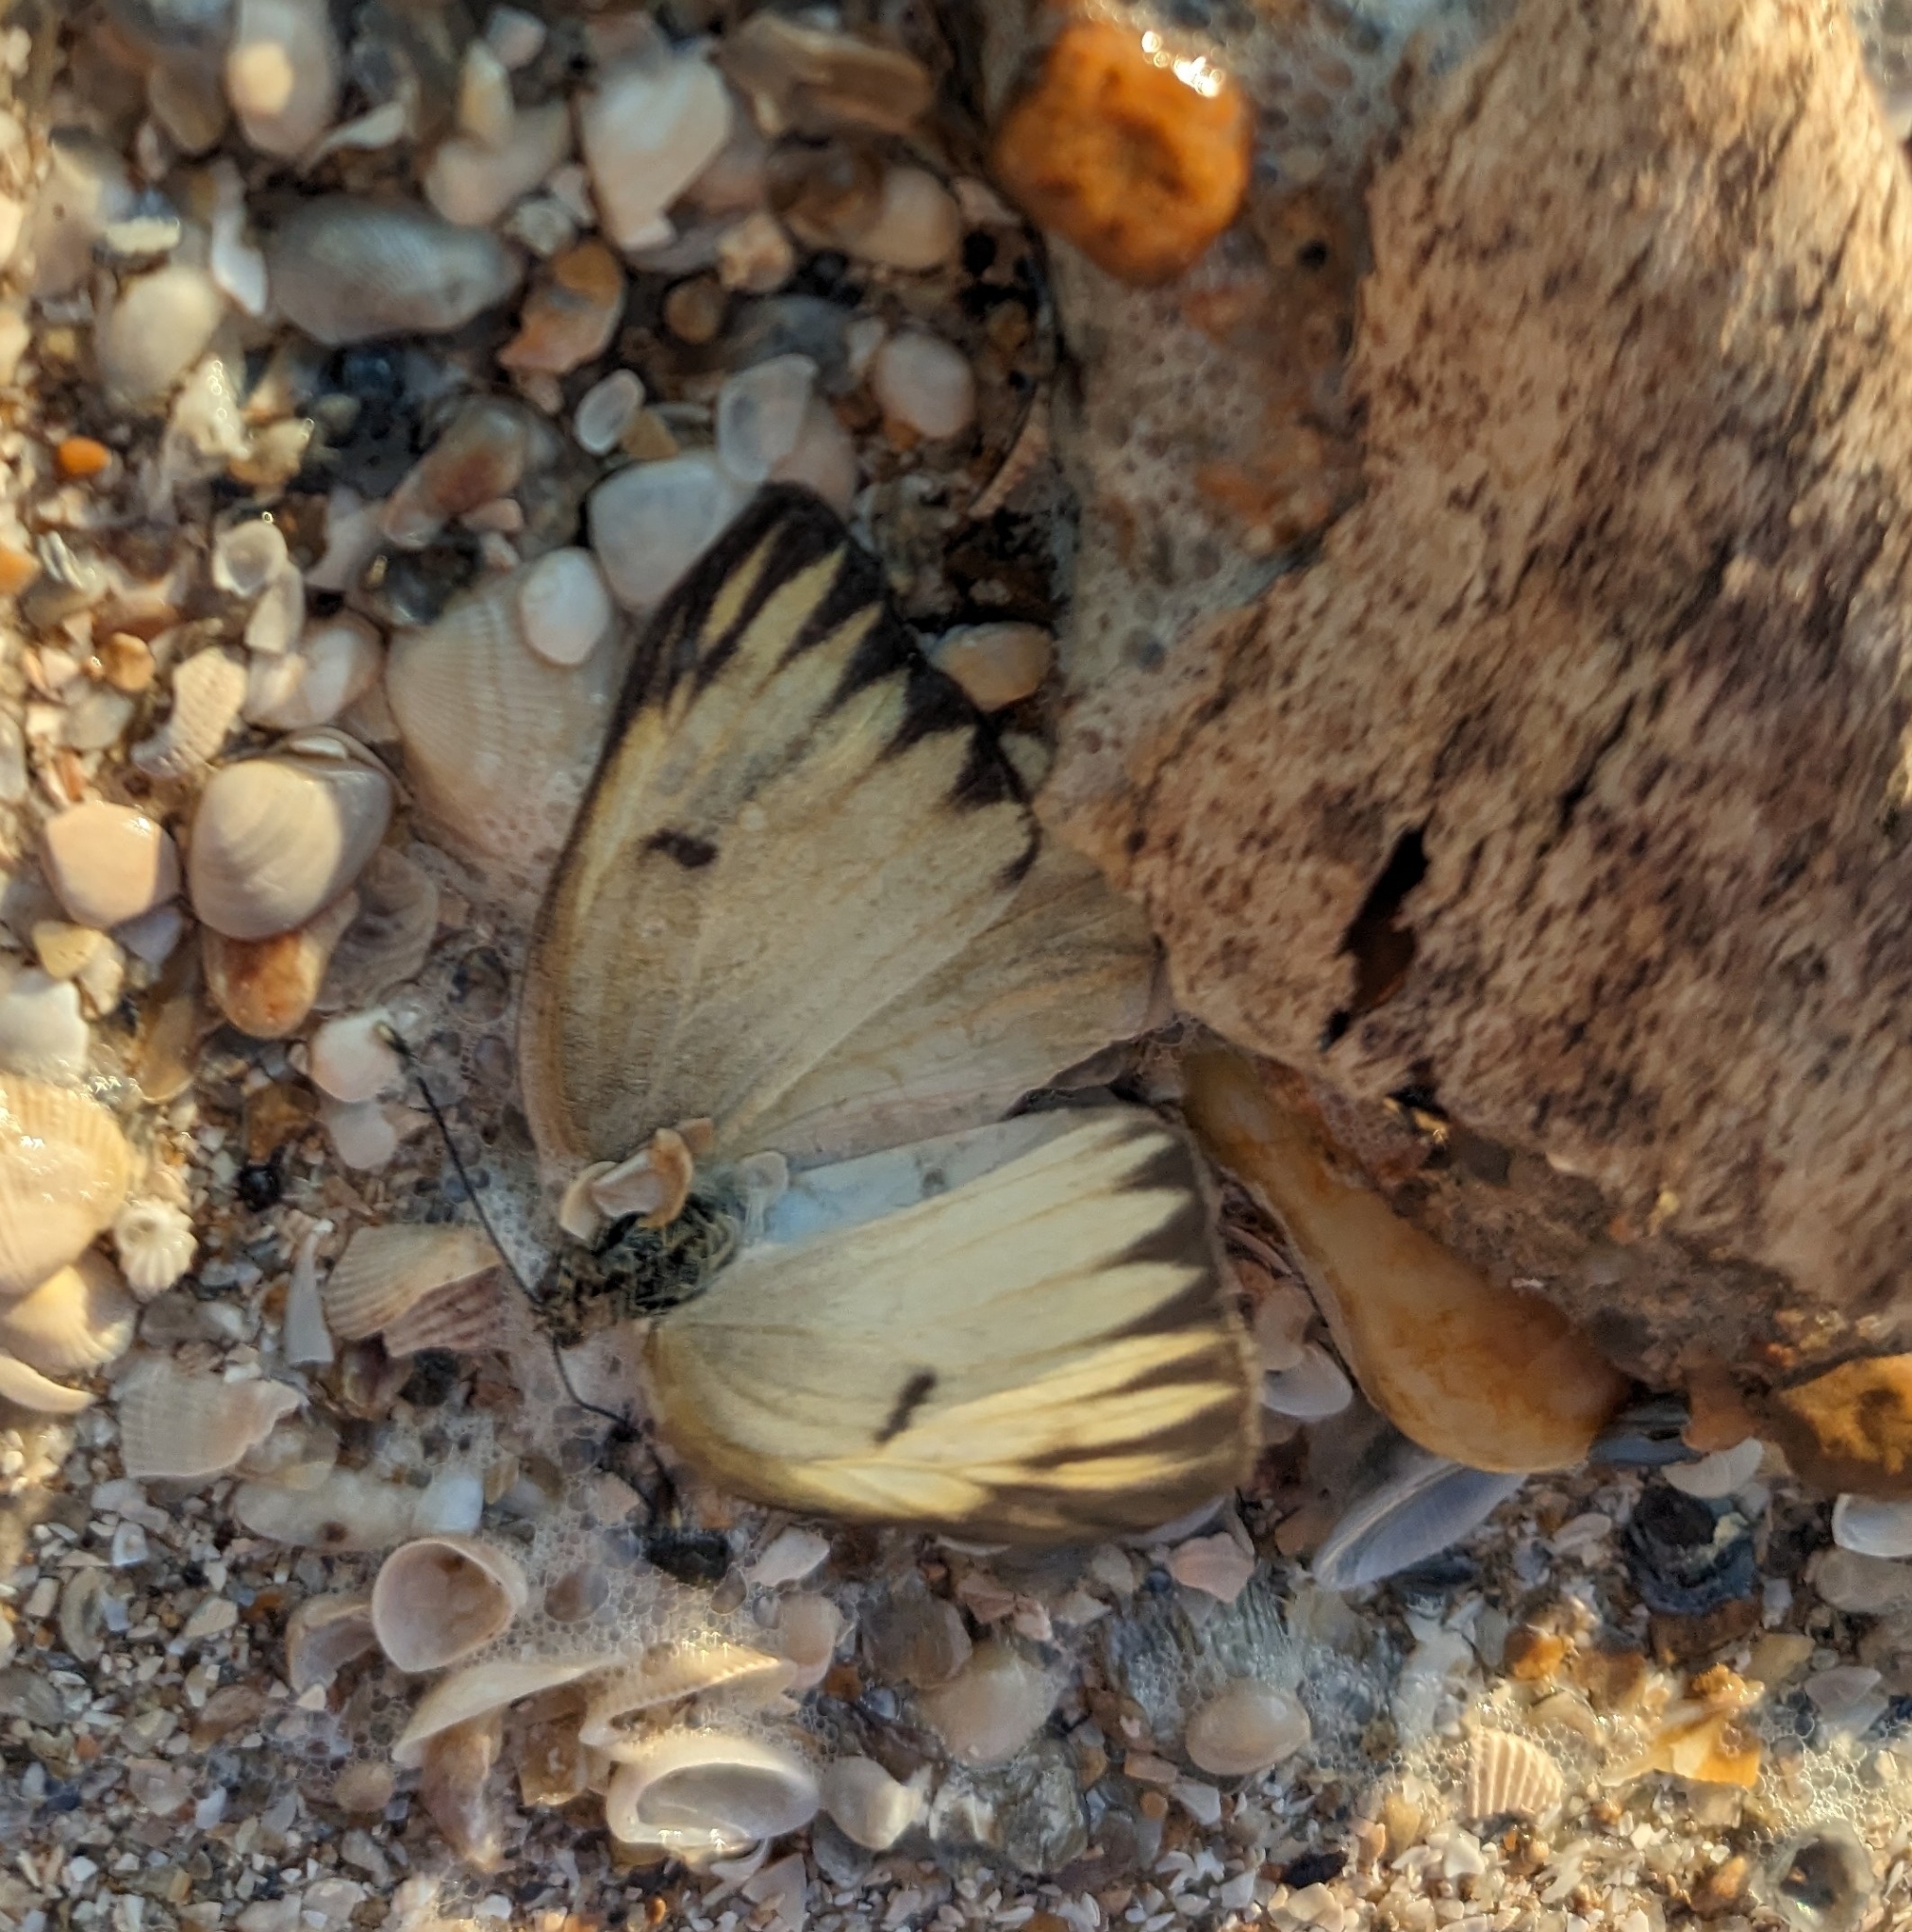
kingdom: Animalia
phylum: Arthropoda
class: Insecta
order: Lepidoptera
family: Pieridae
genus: Ascia
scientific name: Ascia monuste
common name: Great southern white
